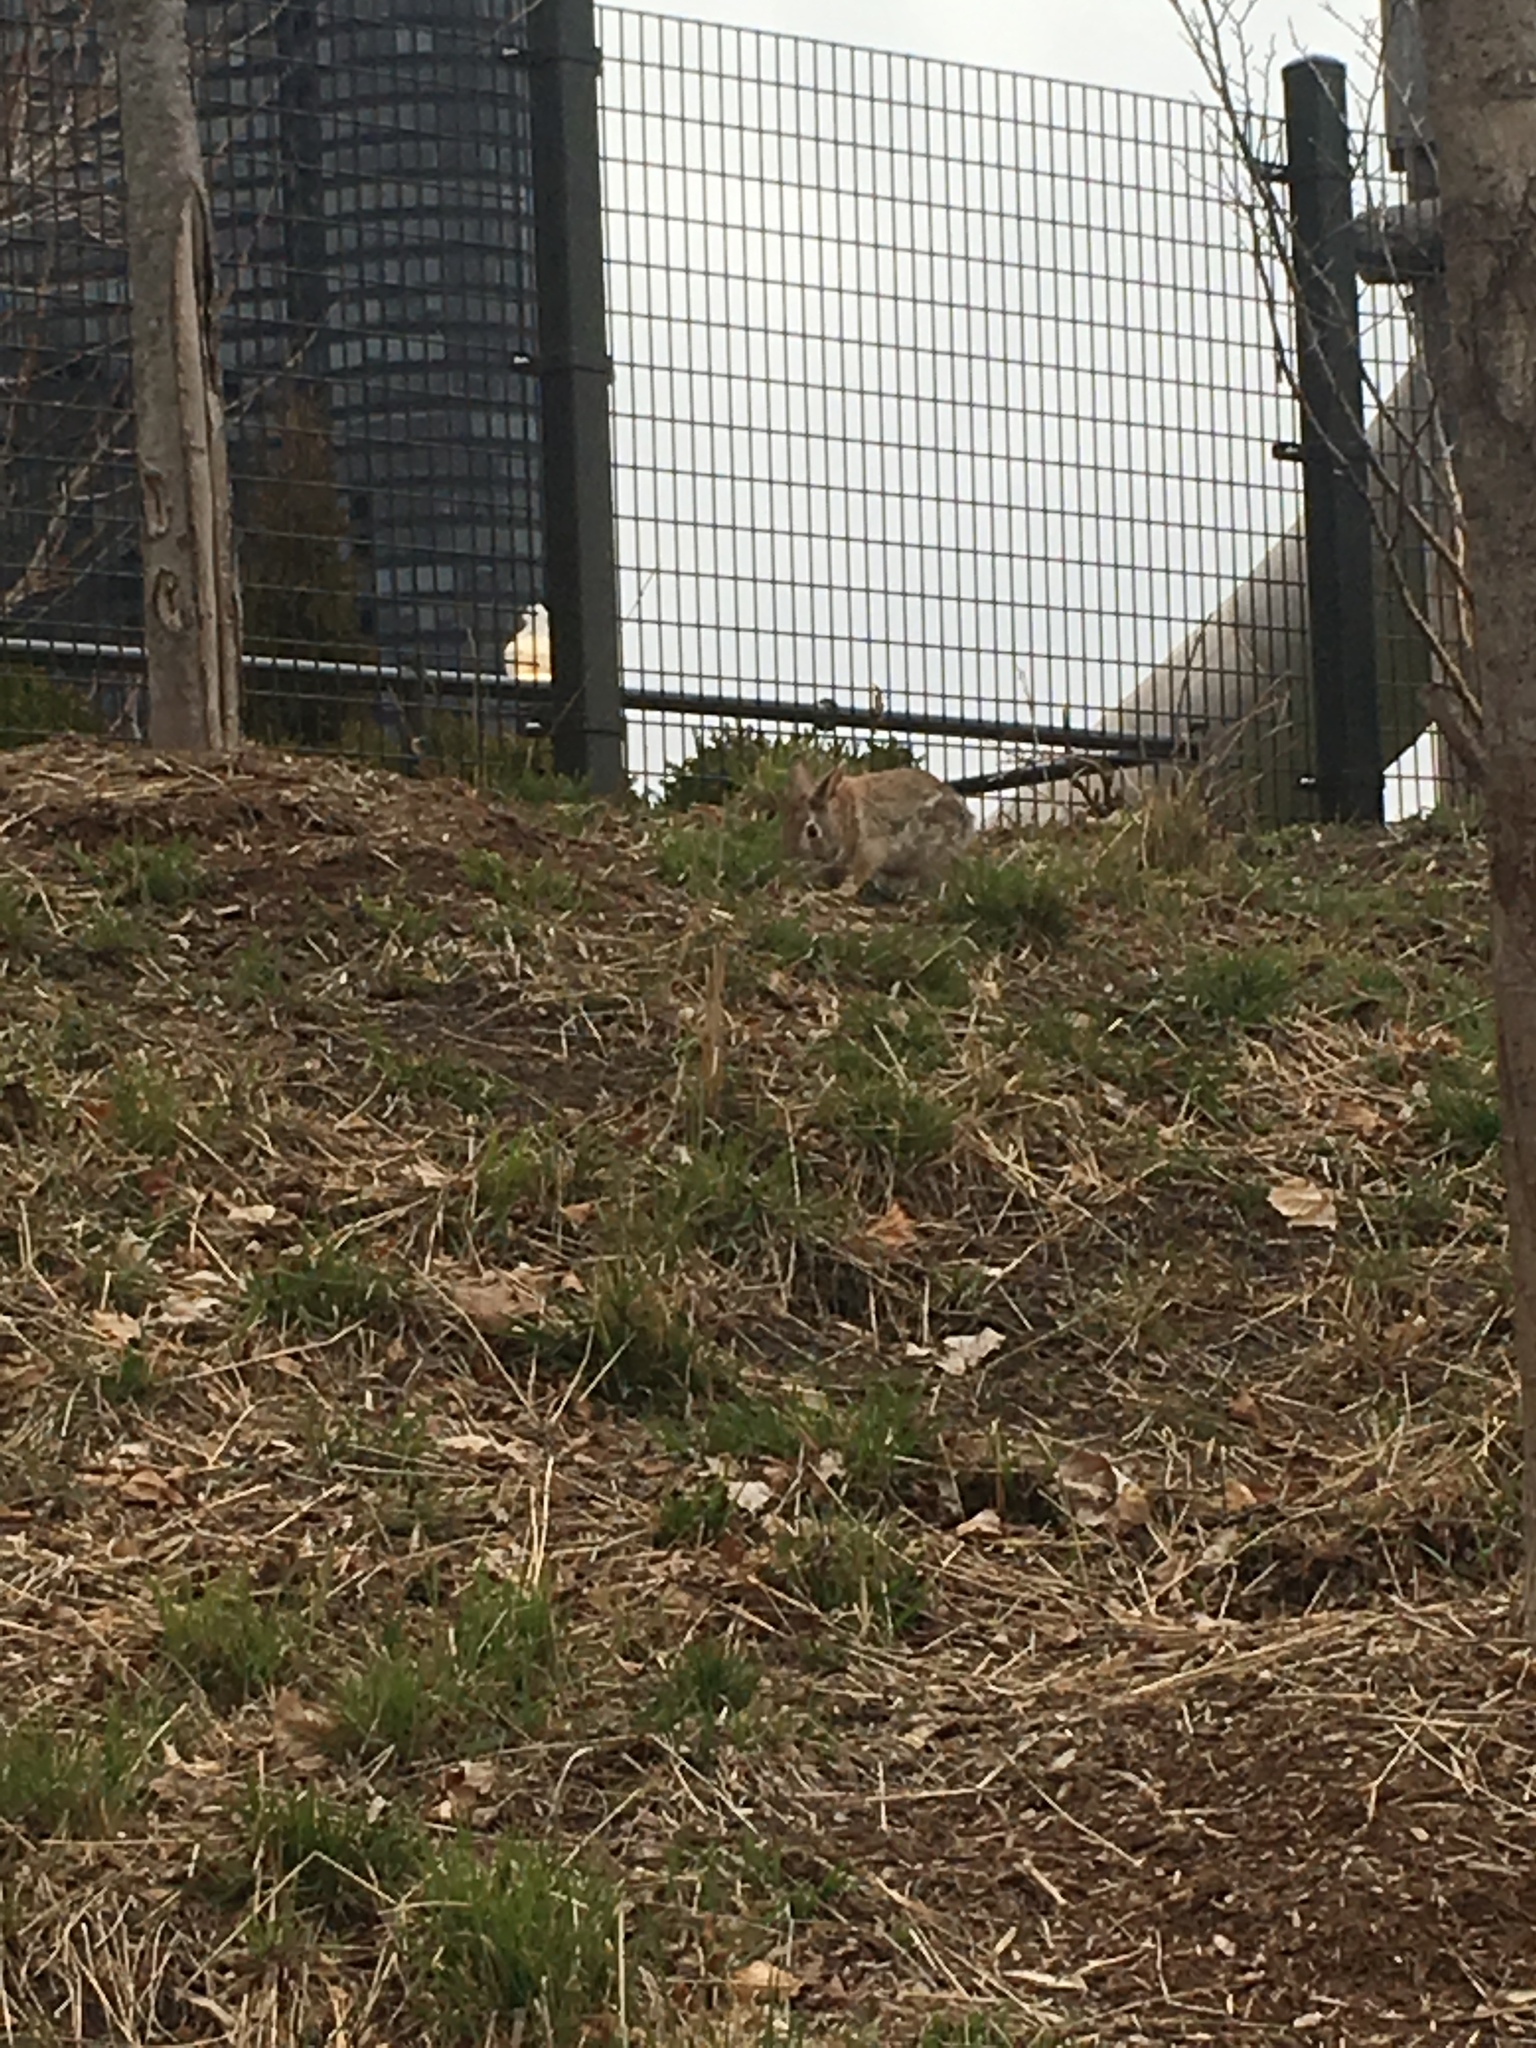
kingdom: Animalia
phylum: Chordata
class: Mammalia
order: Lagomorpha
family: Leporidae
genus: Sylvilagus
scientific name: Sylvilagus floridanus
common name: Eastern cottontail
